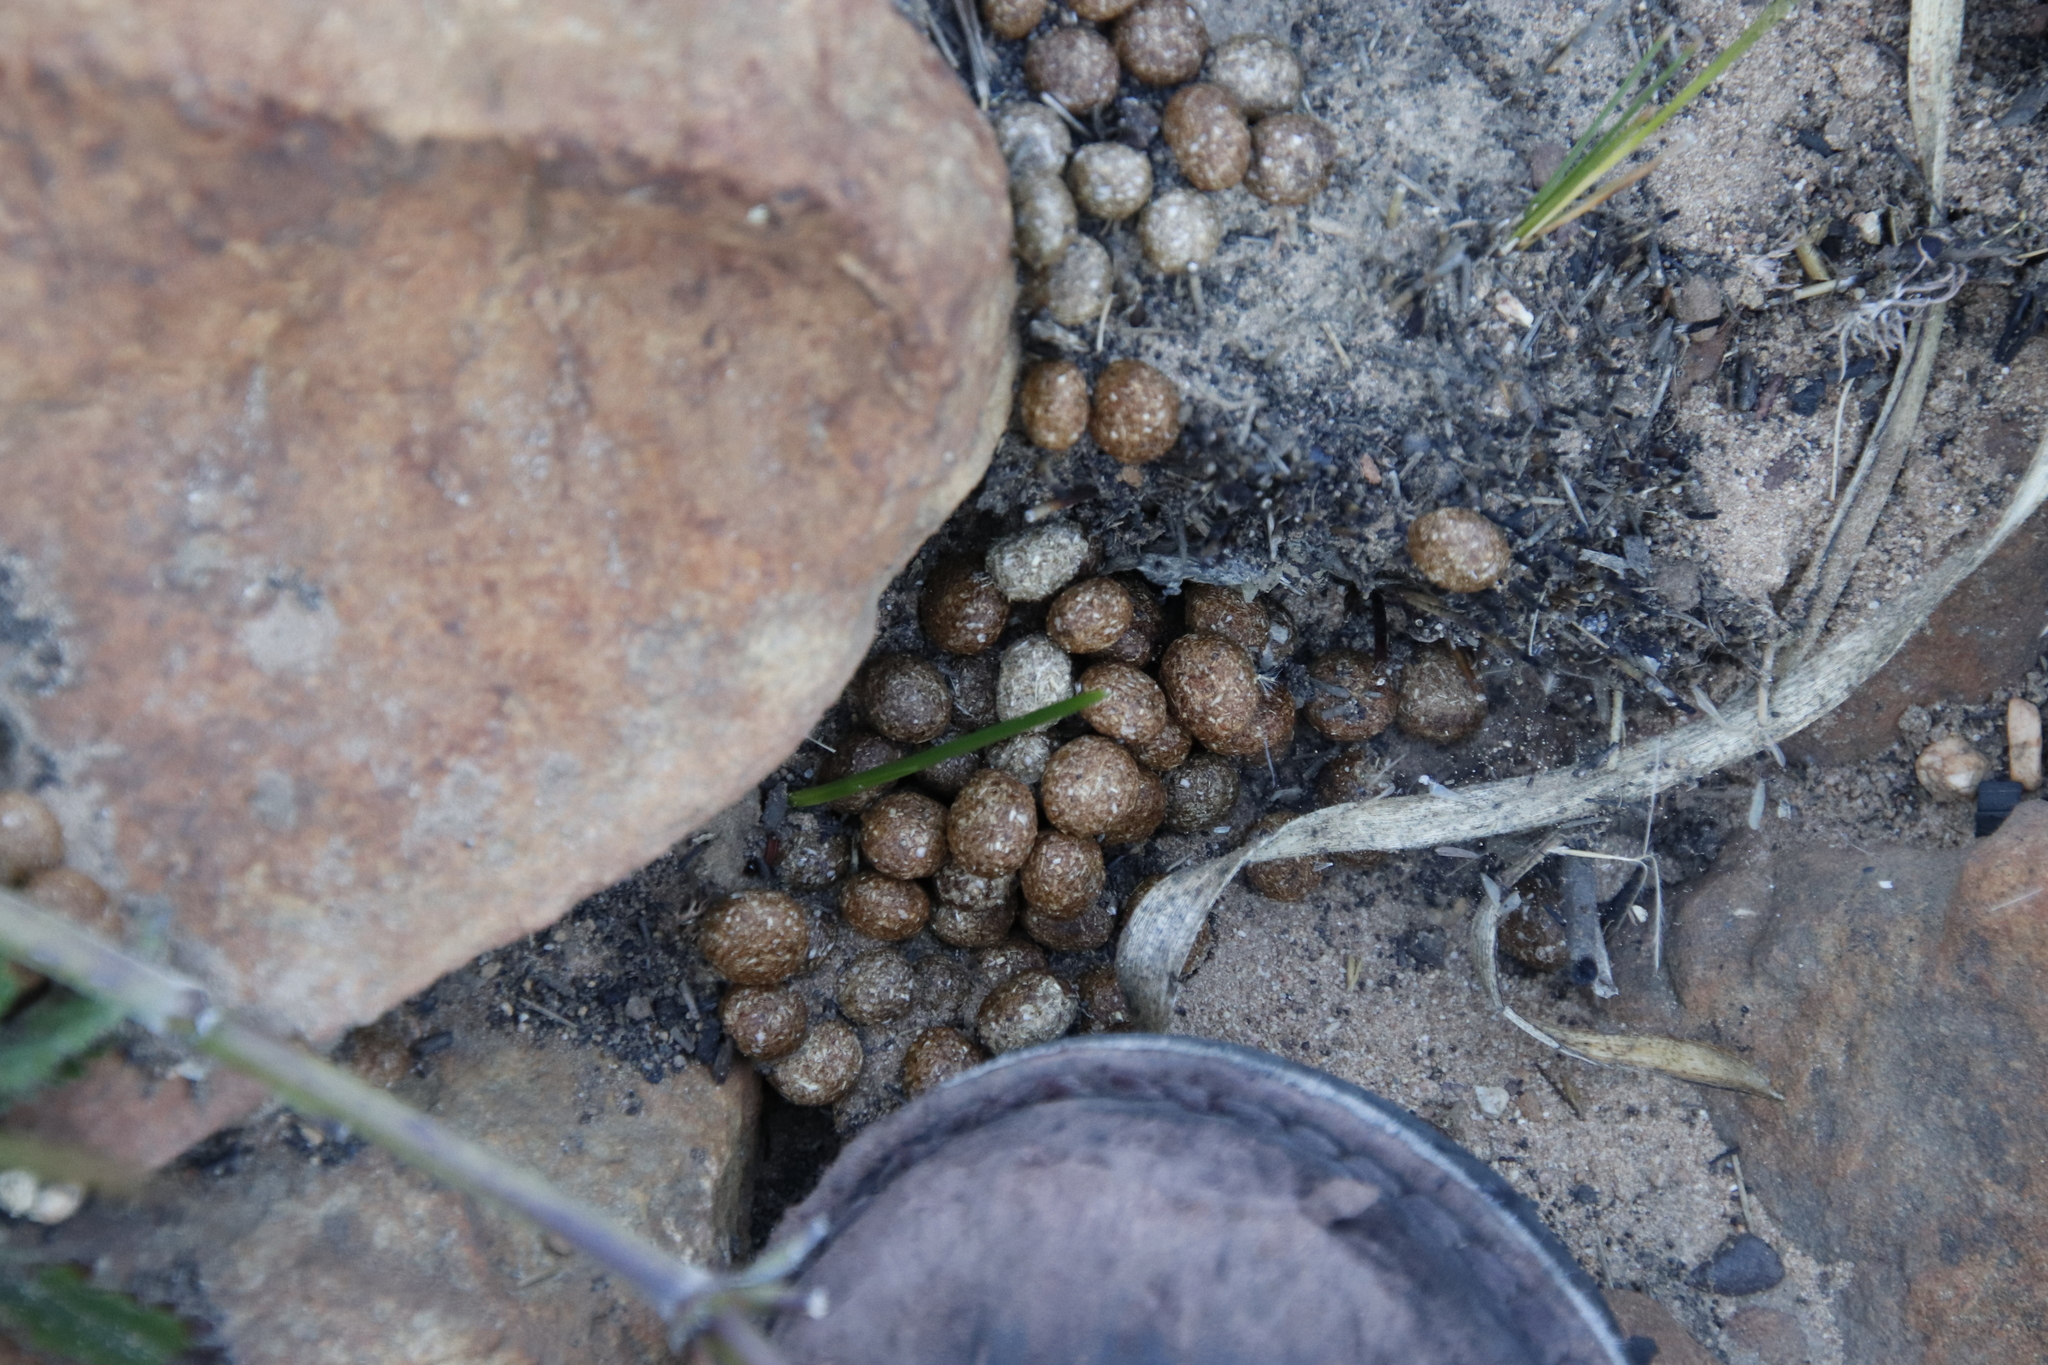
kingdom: Animalia
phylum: Chordata
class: Mammalia
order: Lagomorpha
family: Leporidae
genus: Pronolagus
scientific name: Pronolagus saundersiae
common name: Hewitt's red rock hare
